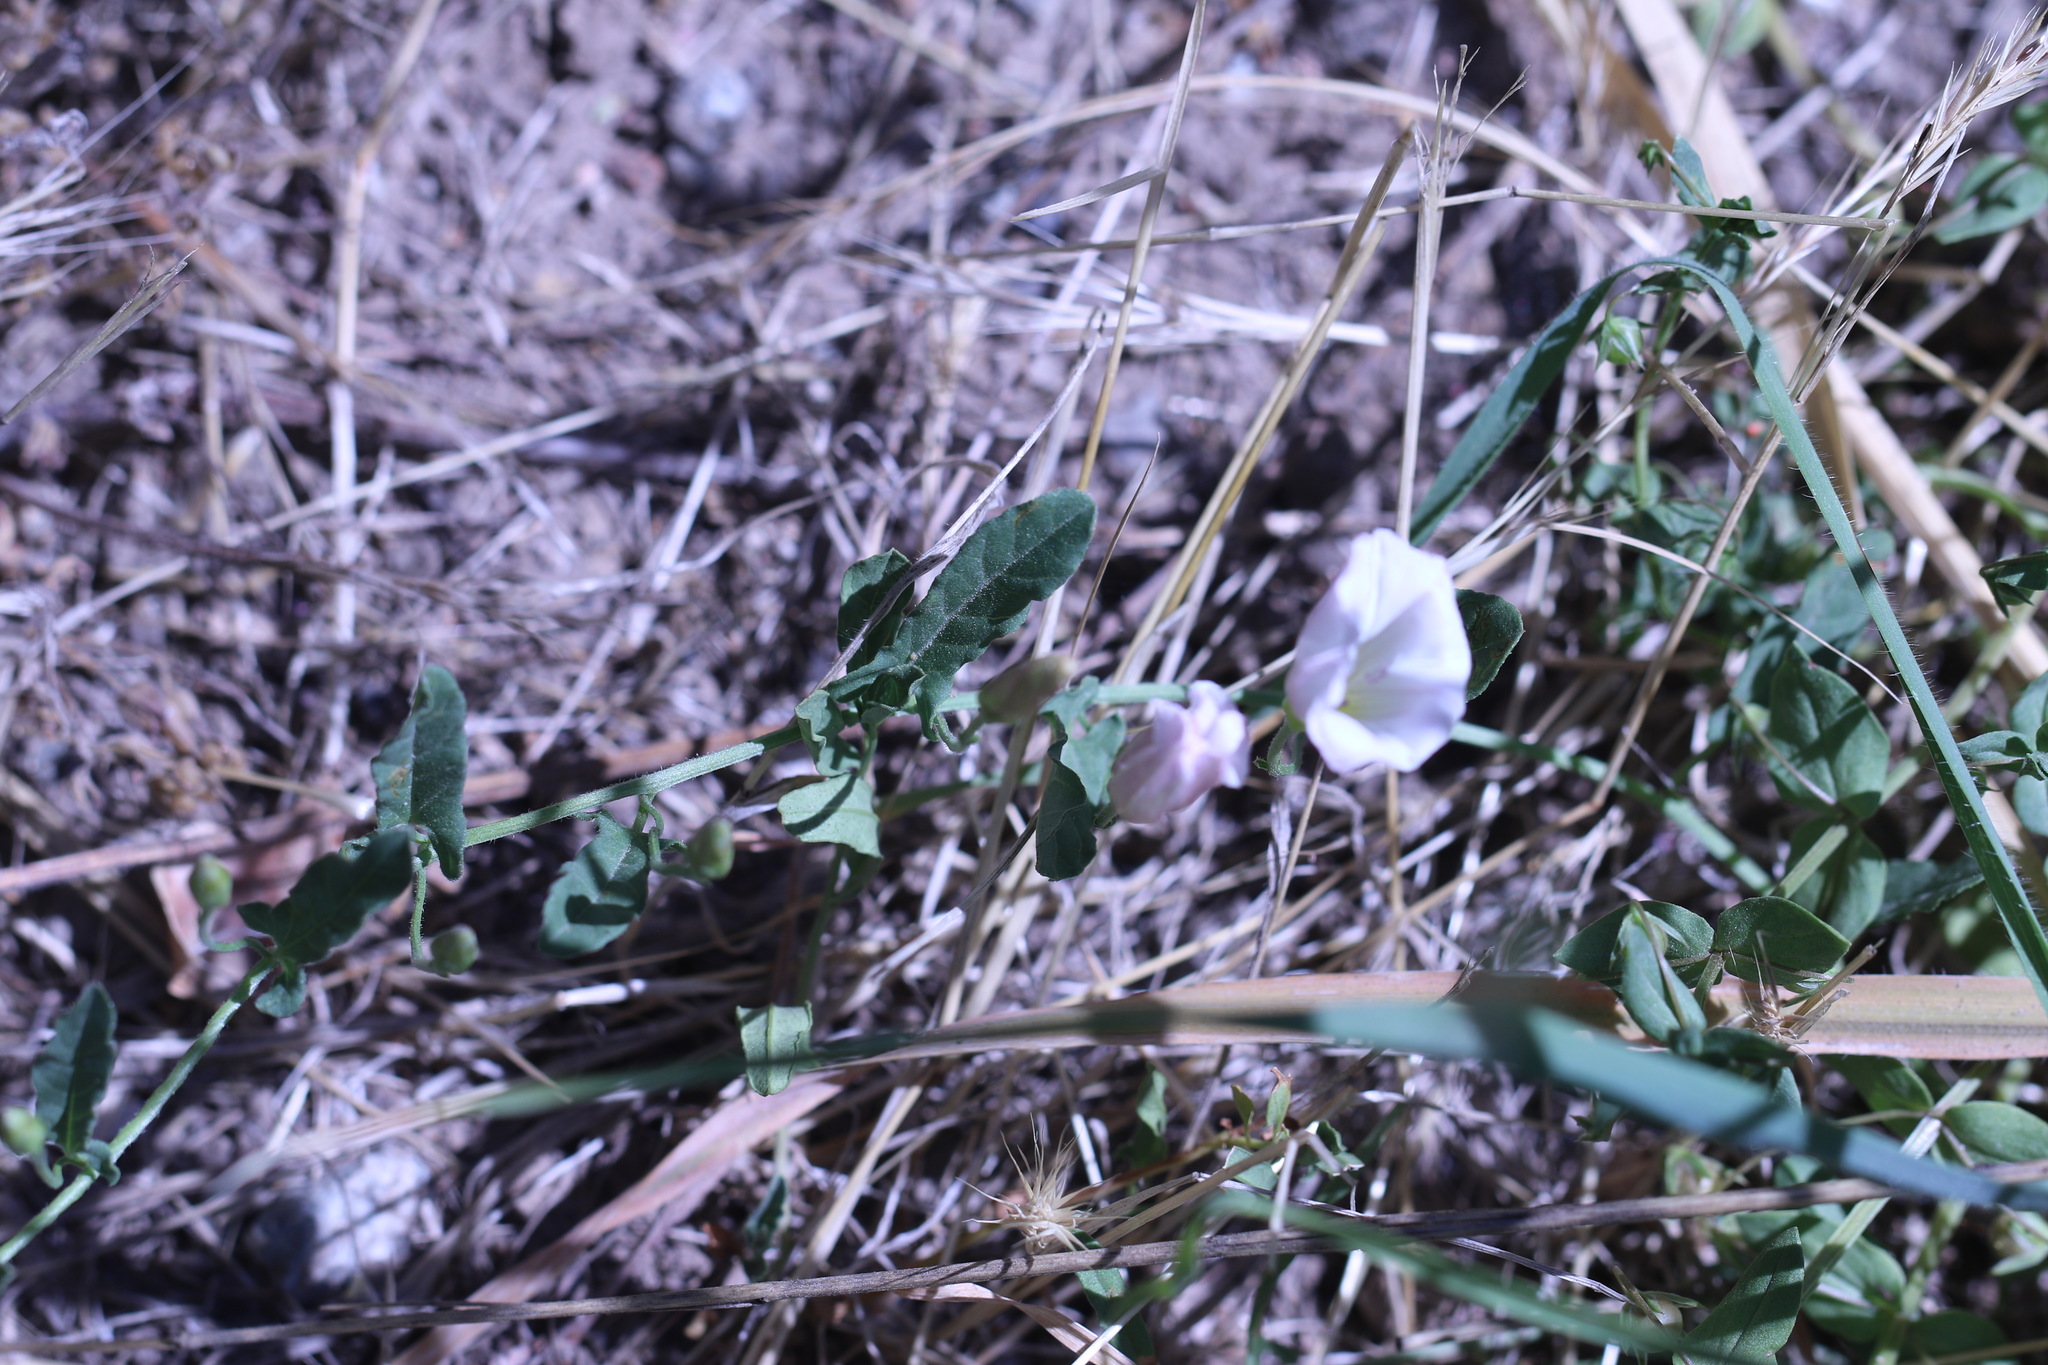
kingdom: Plantae
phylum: Tracheophyta
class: Magnoliopsida
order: Solanales
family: Convolvulaceae
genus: Convolvulus
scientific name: Convolvulus arvensis
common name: Field bindweed
